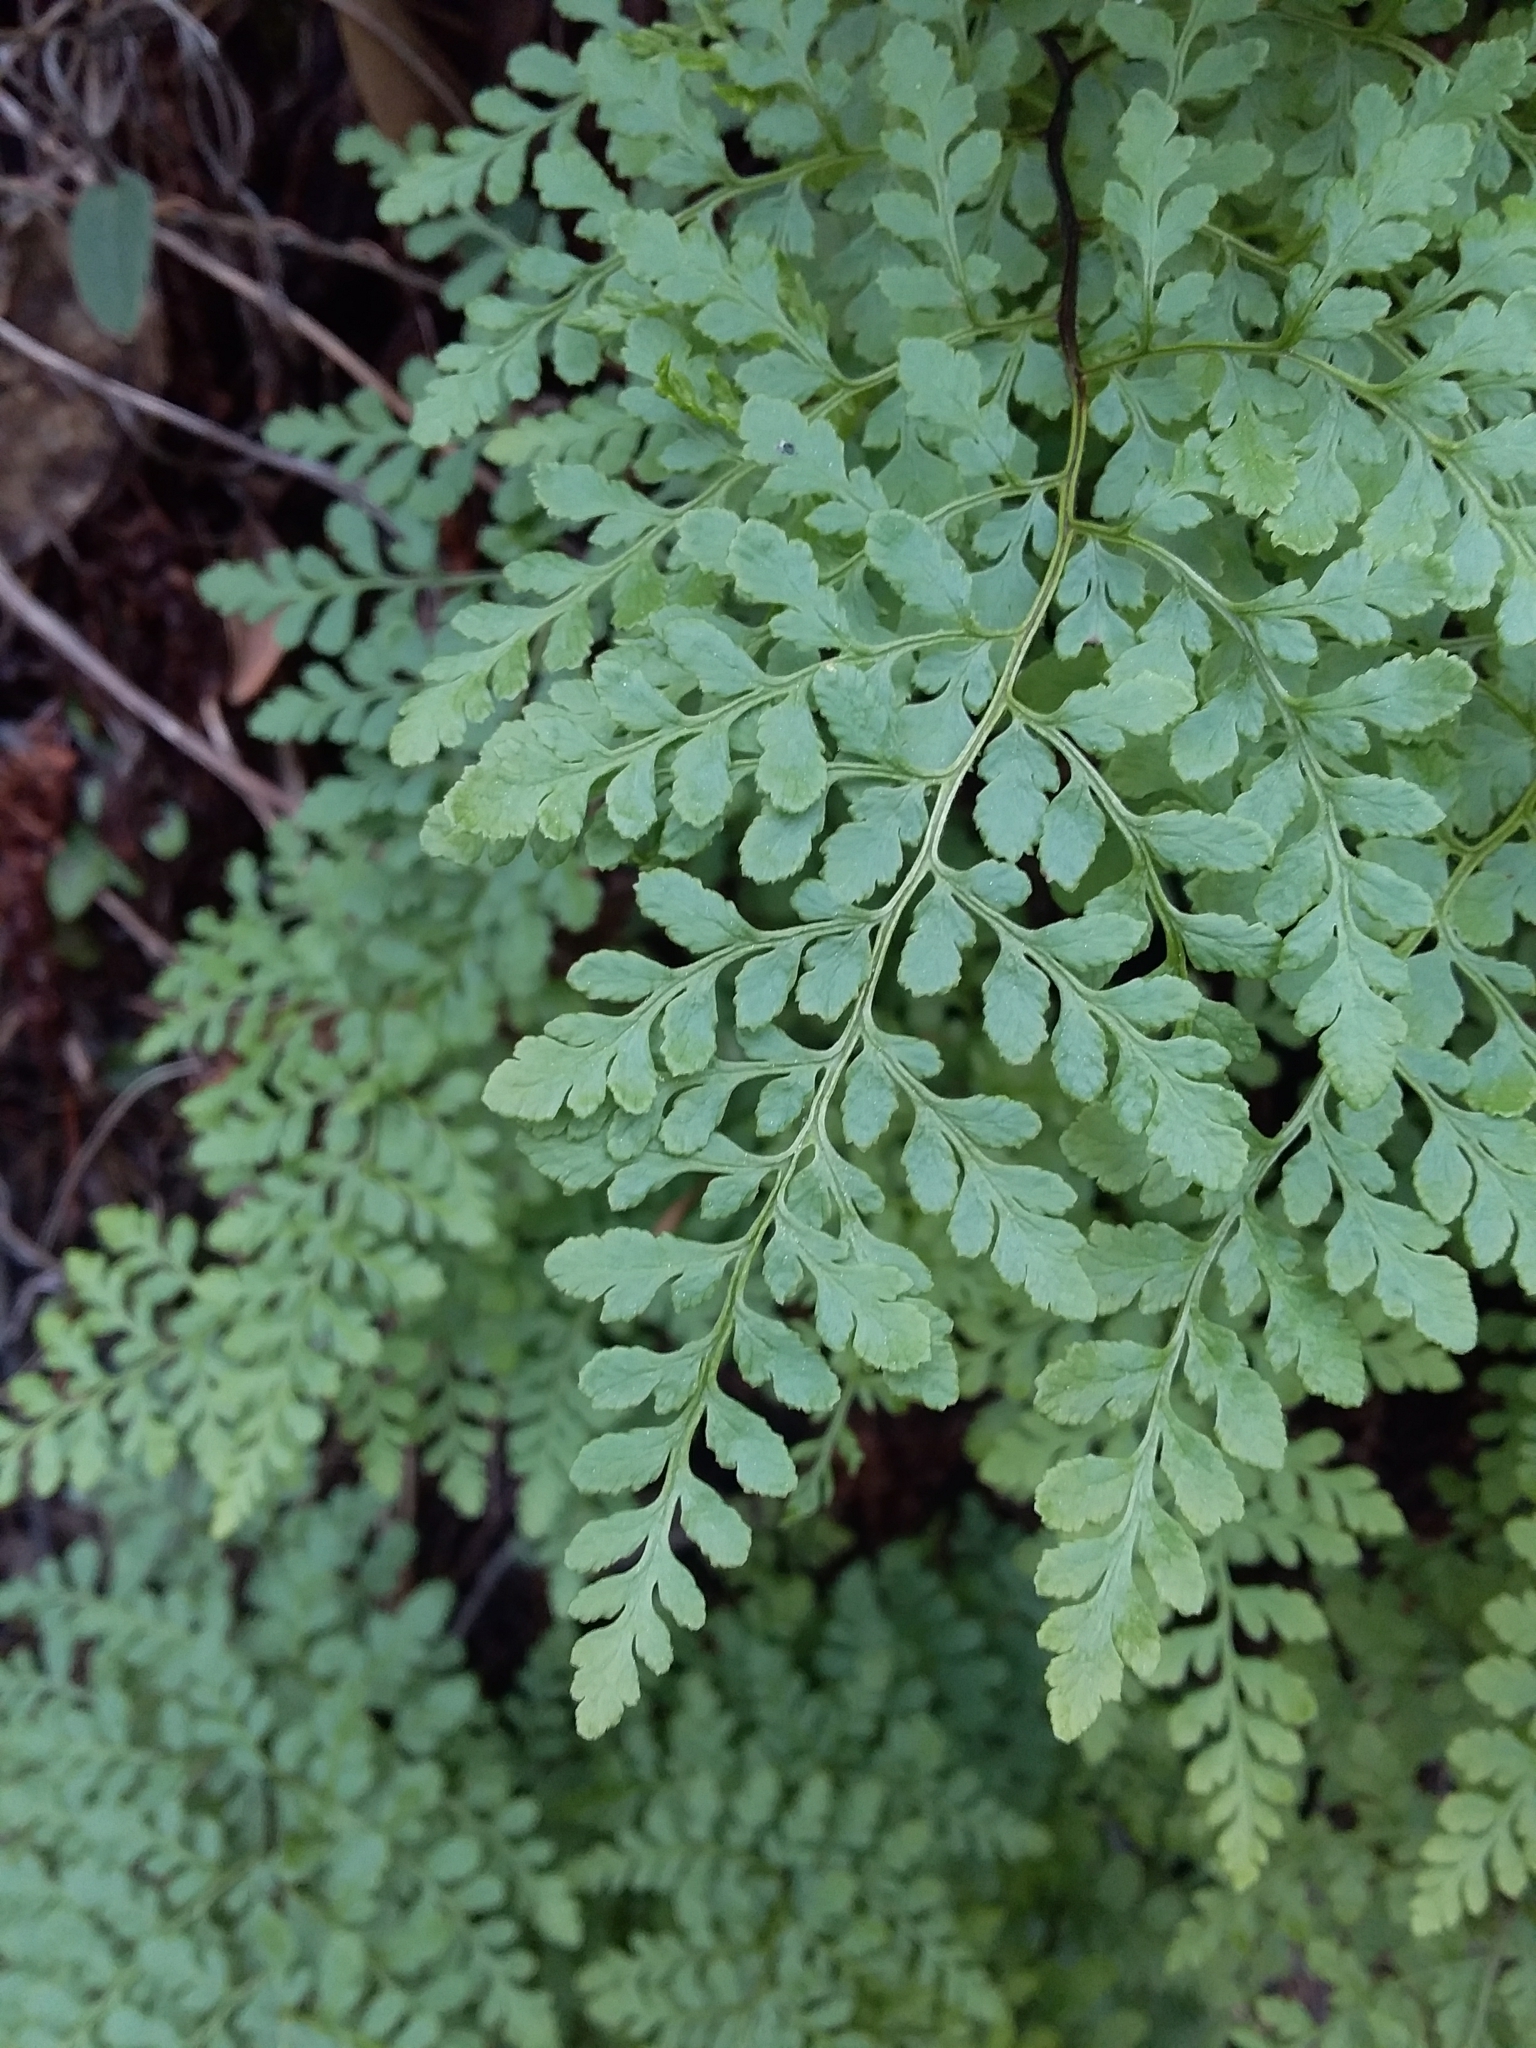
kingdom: Plantae
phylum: Tracheophyta
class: Polypodiopsida
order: Polypodiales
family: Pteridaceae
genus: Cheilanthes
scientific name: Cheilanthes austrotenuifolia
